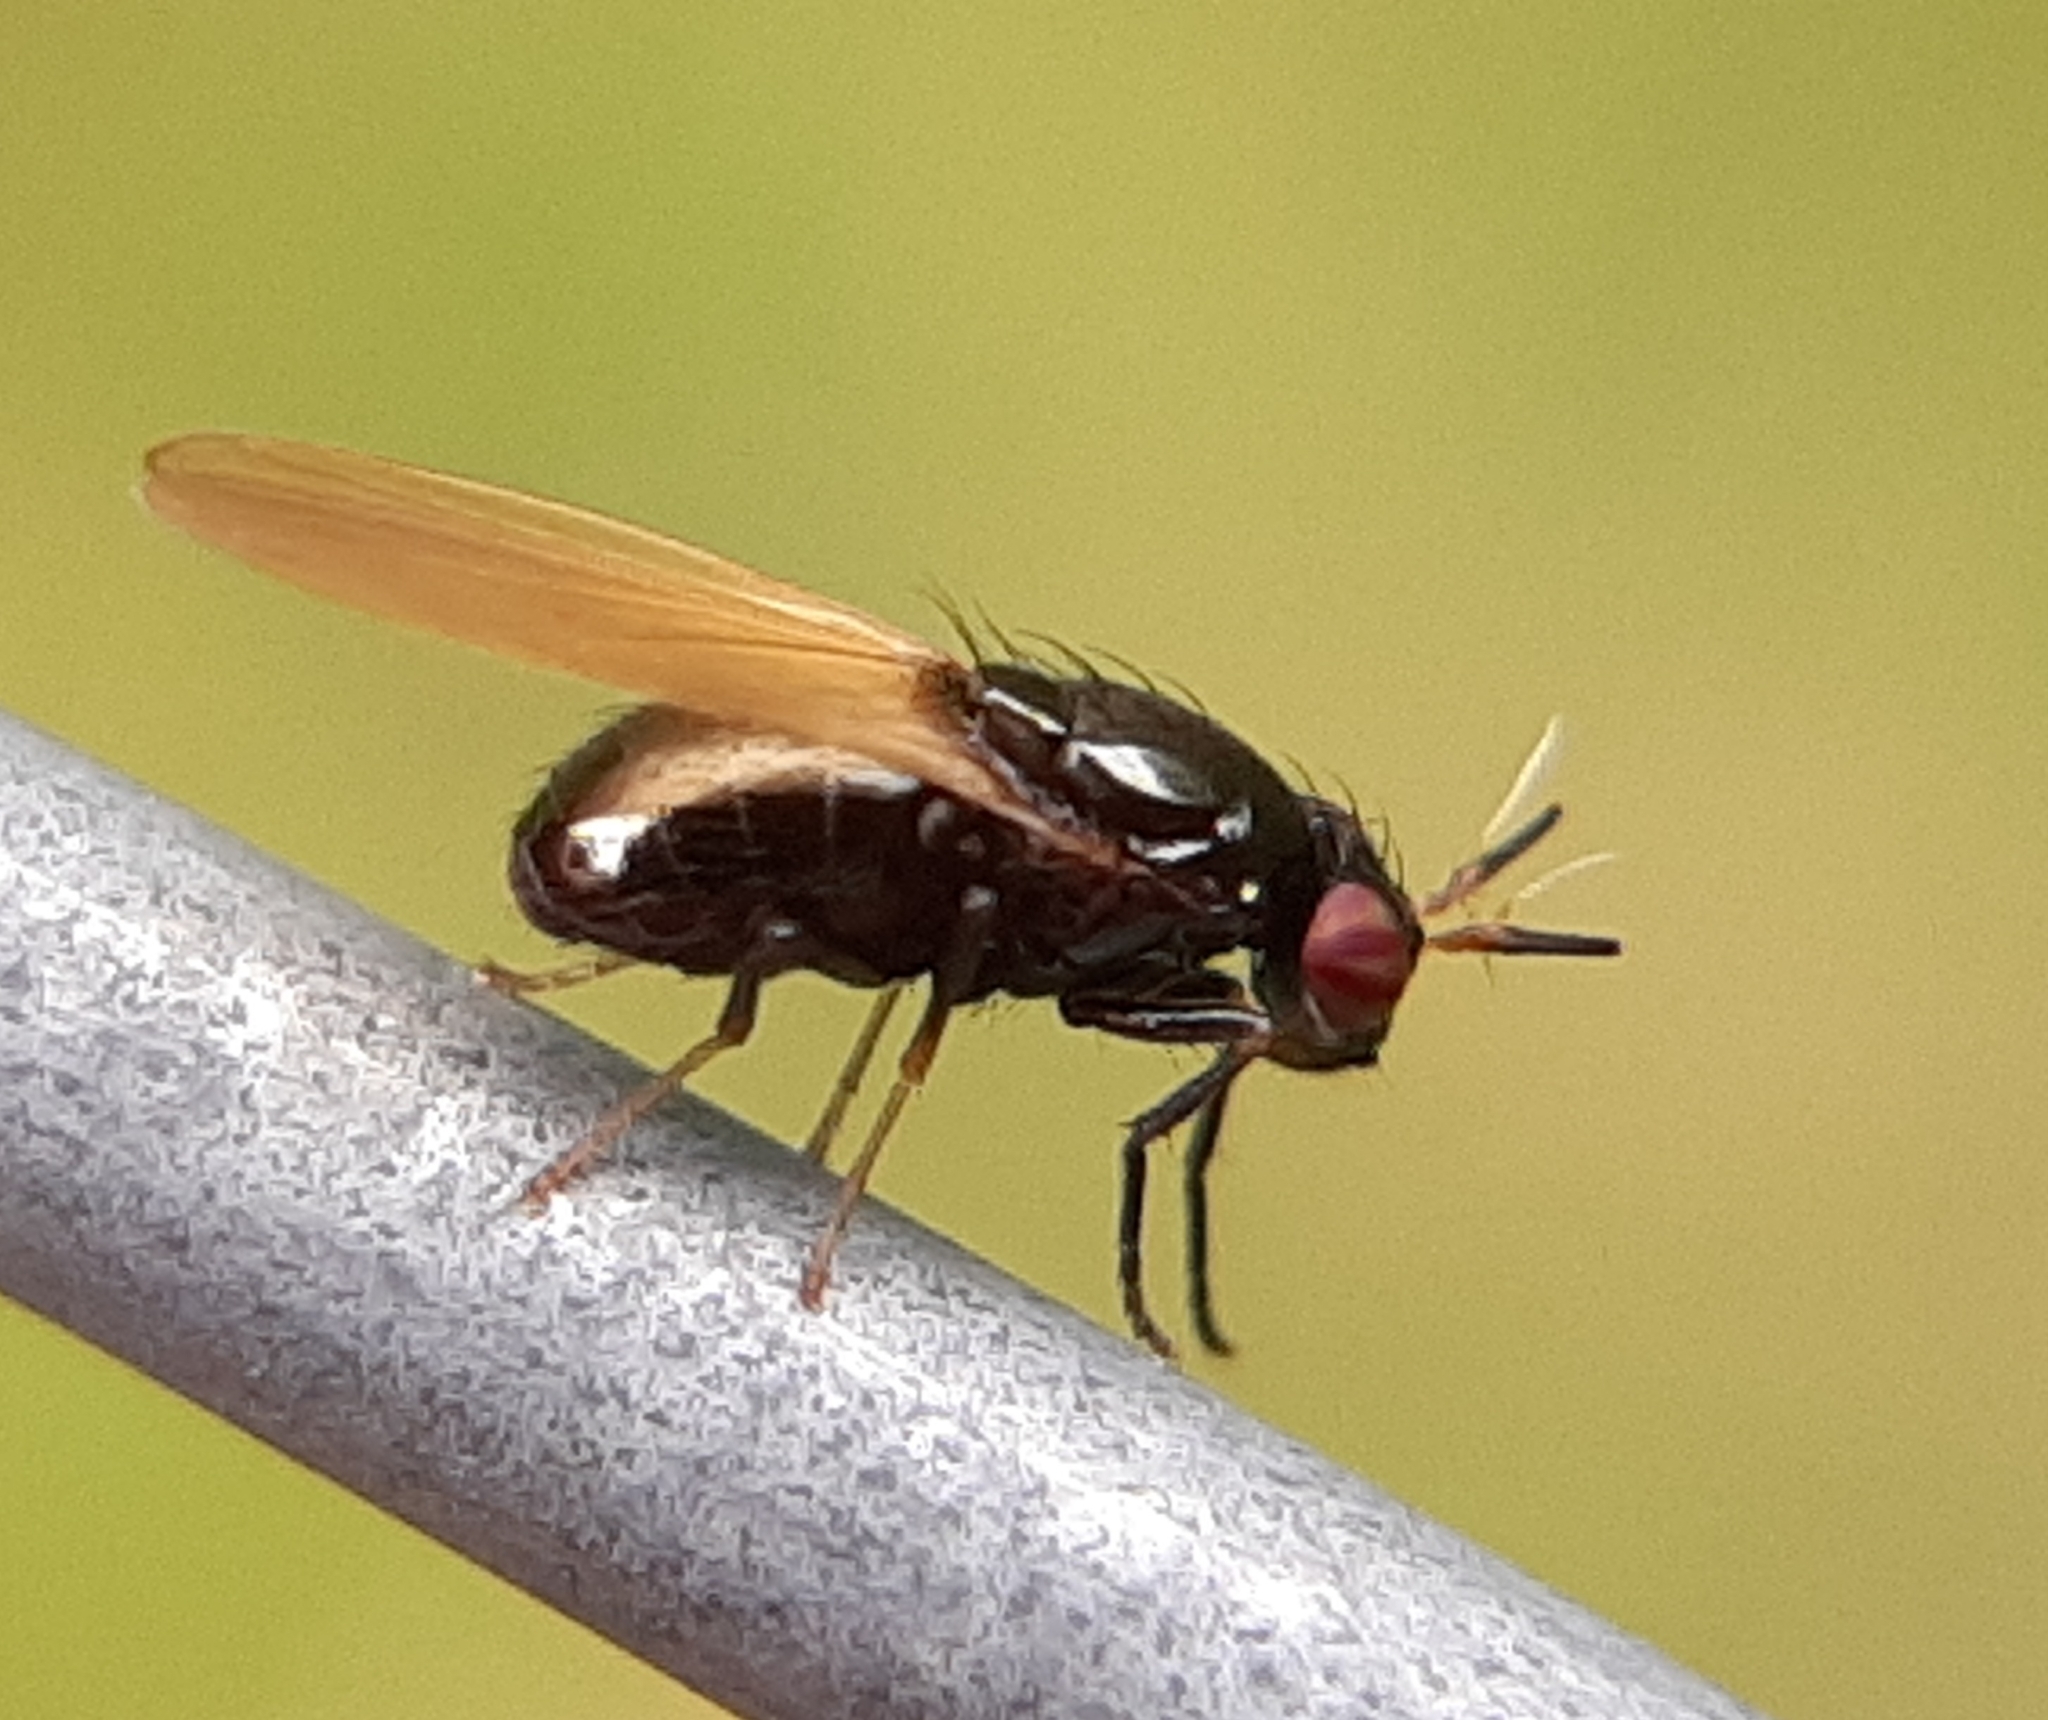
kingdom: Animalia
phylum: Arthropoda
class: Insecta
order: Diptera
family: Lauxaniidae
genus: Lauxania
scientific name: Lauxania shewelli
